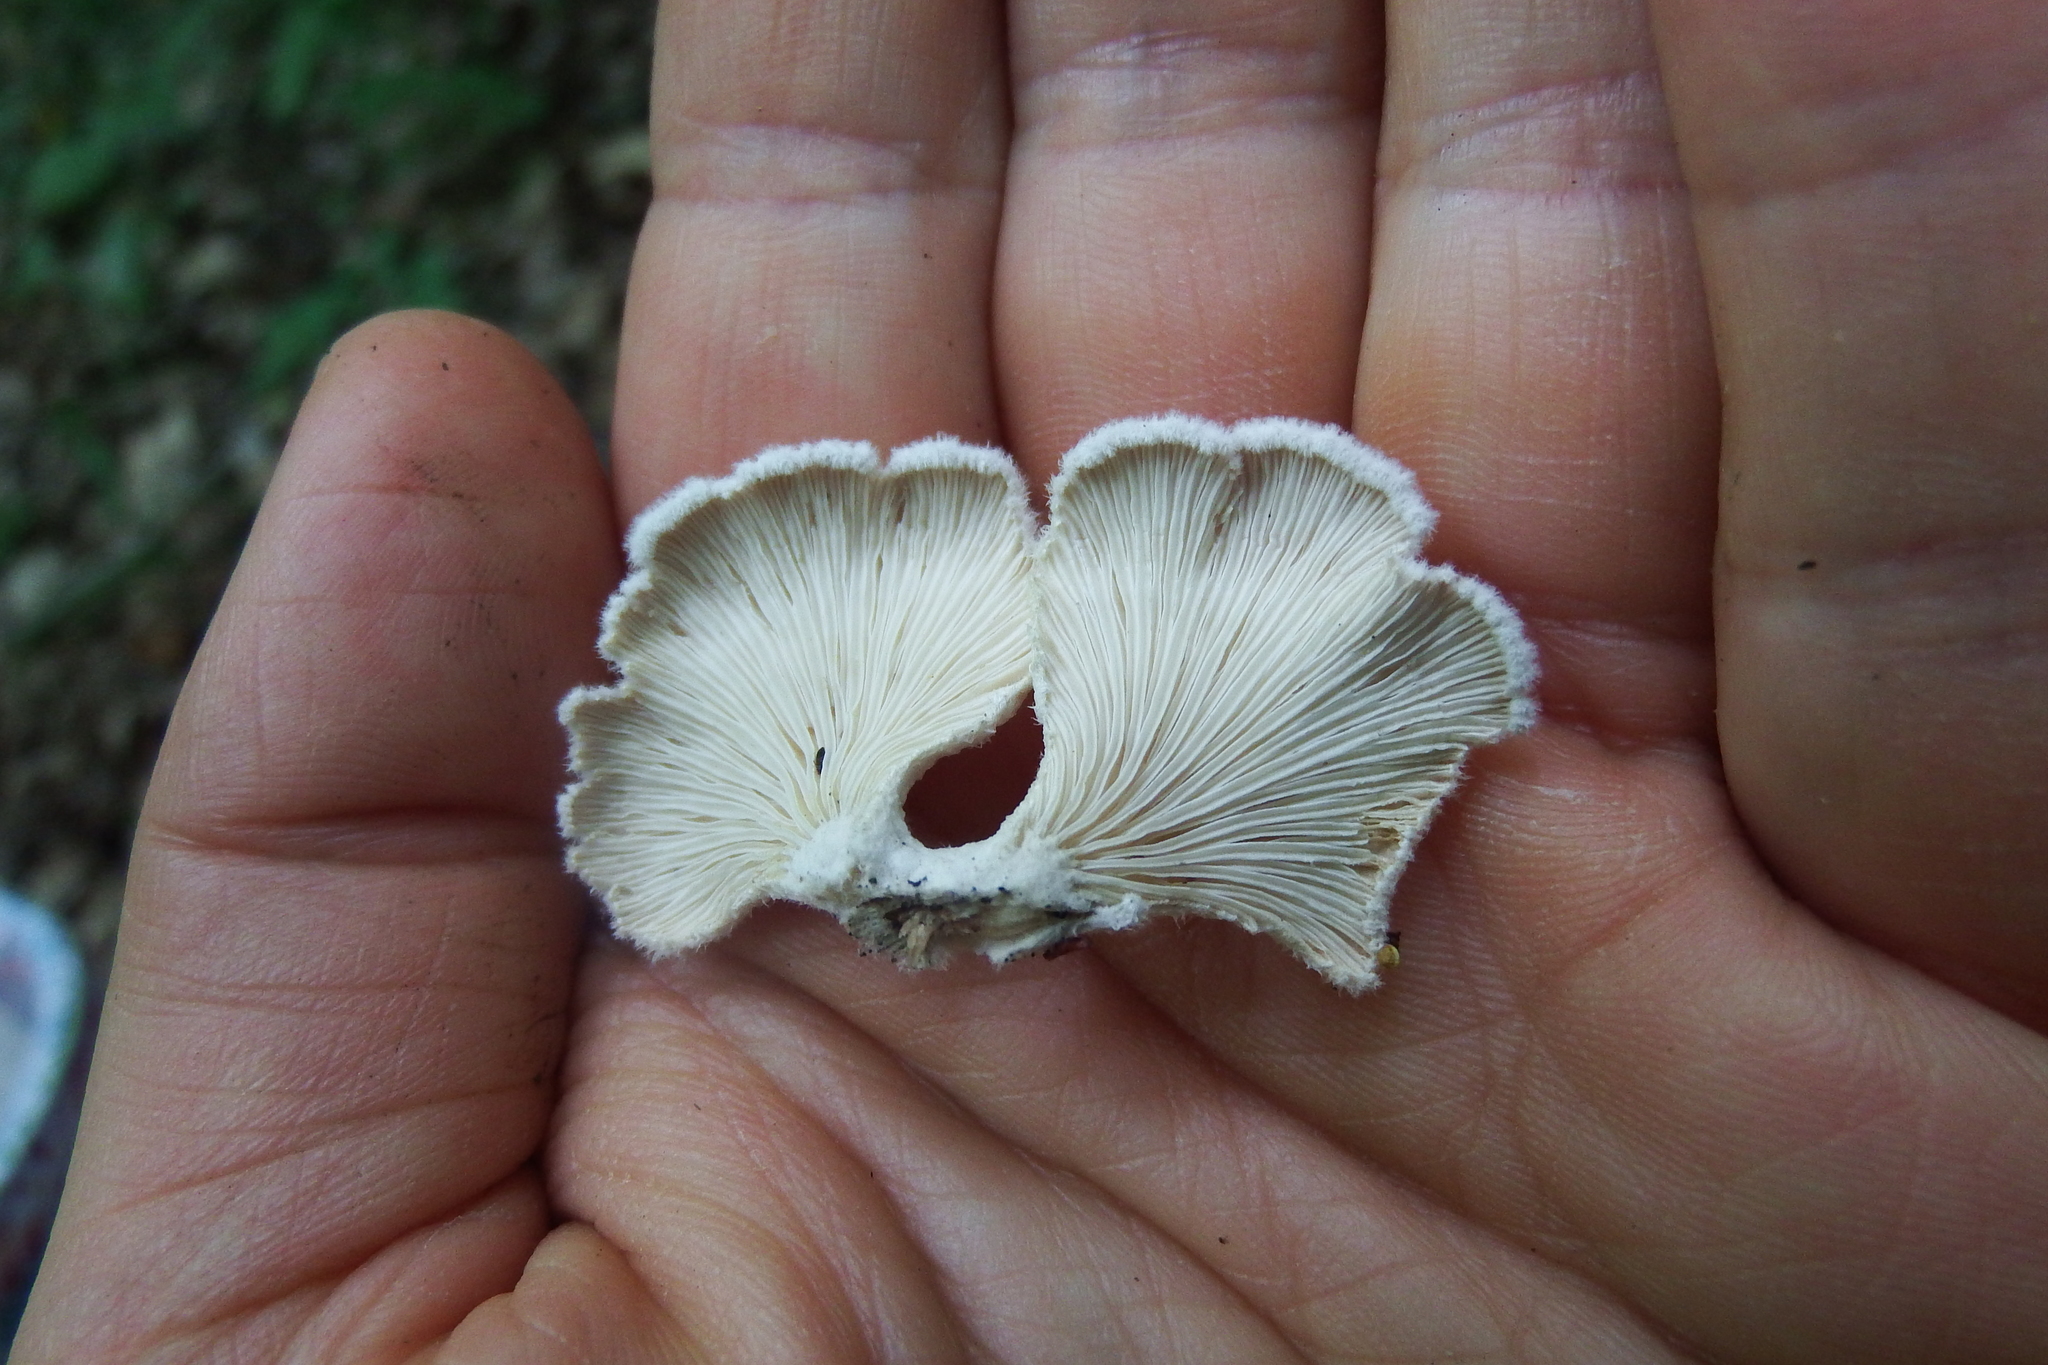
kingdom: Fungi
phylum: Basidiomycota
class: Agaricomycetes
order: Agaricales
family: Schizophyllaceae
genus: Schizophyllum
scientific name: Schizophyllum commune
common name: Common porecrust
